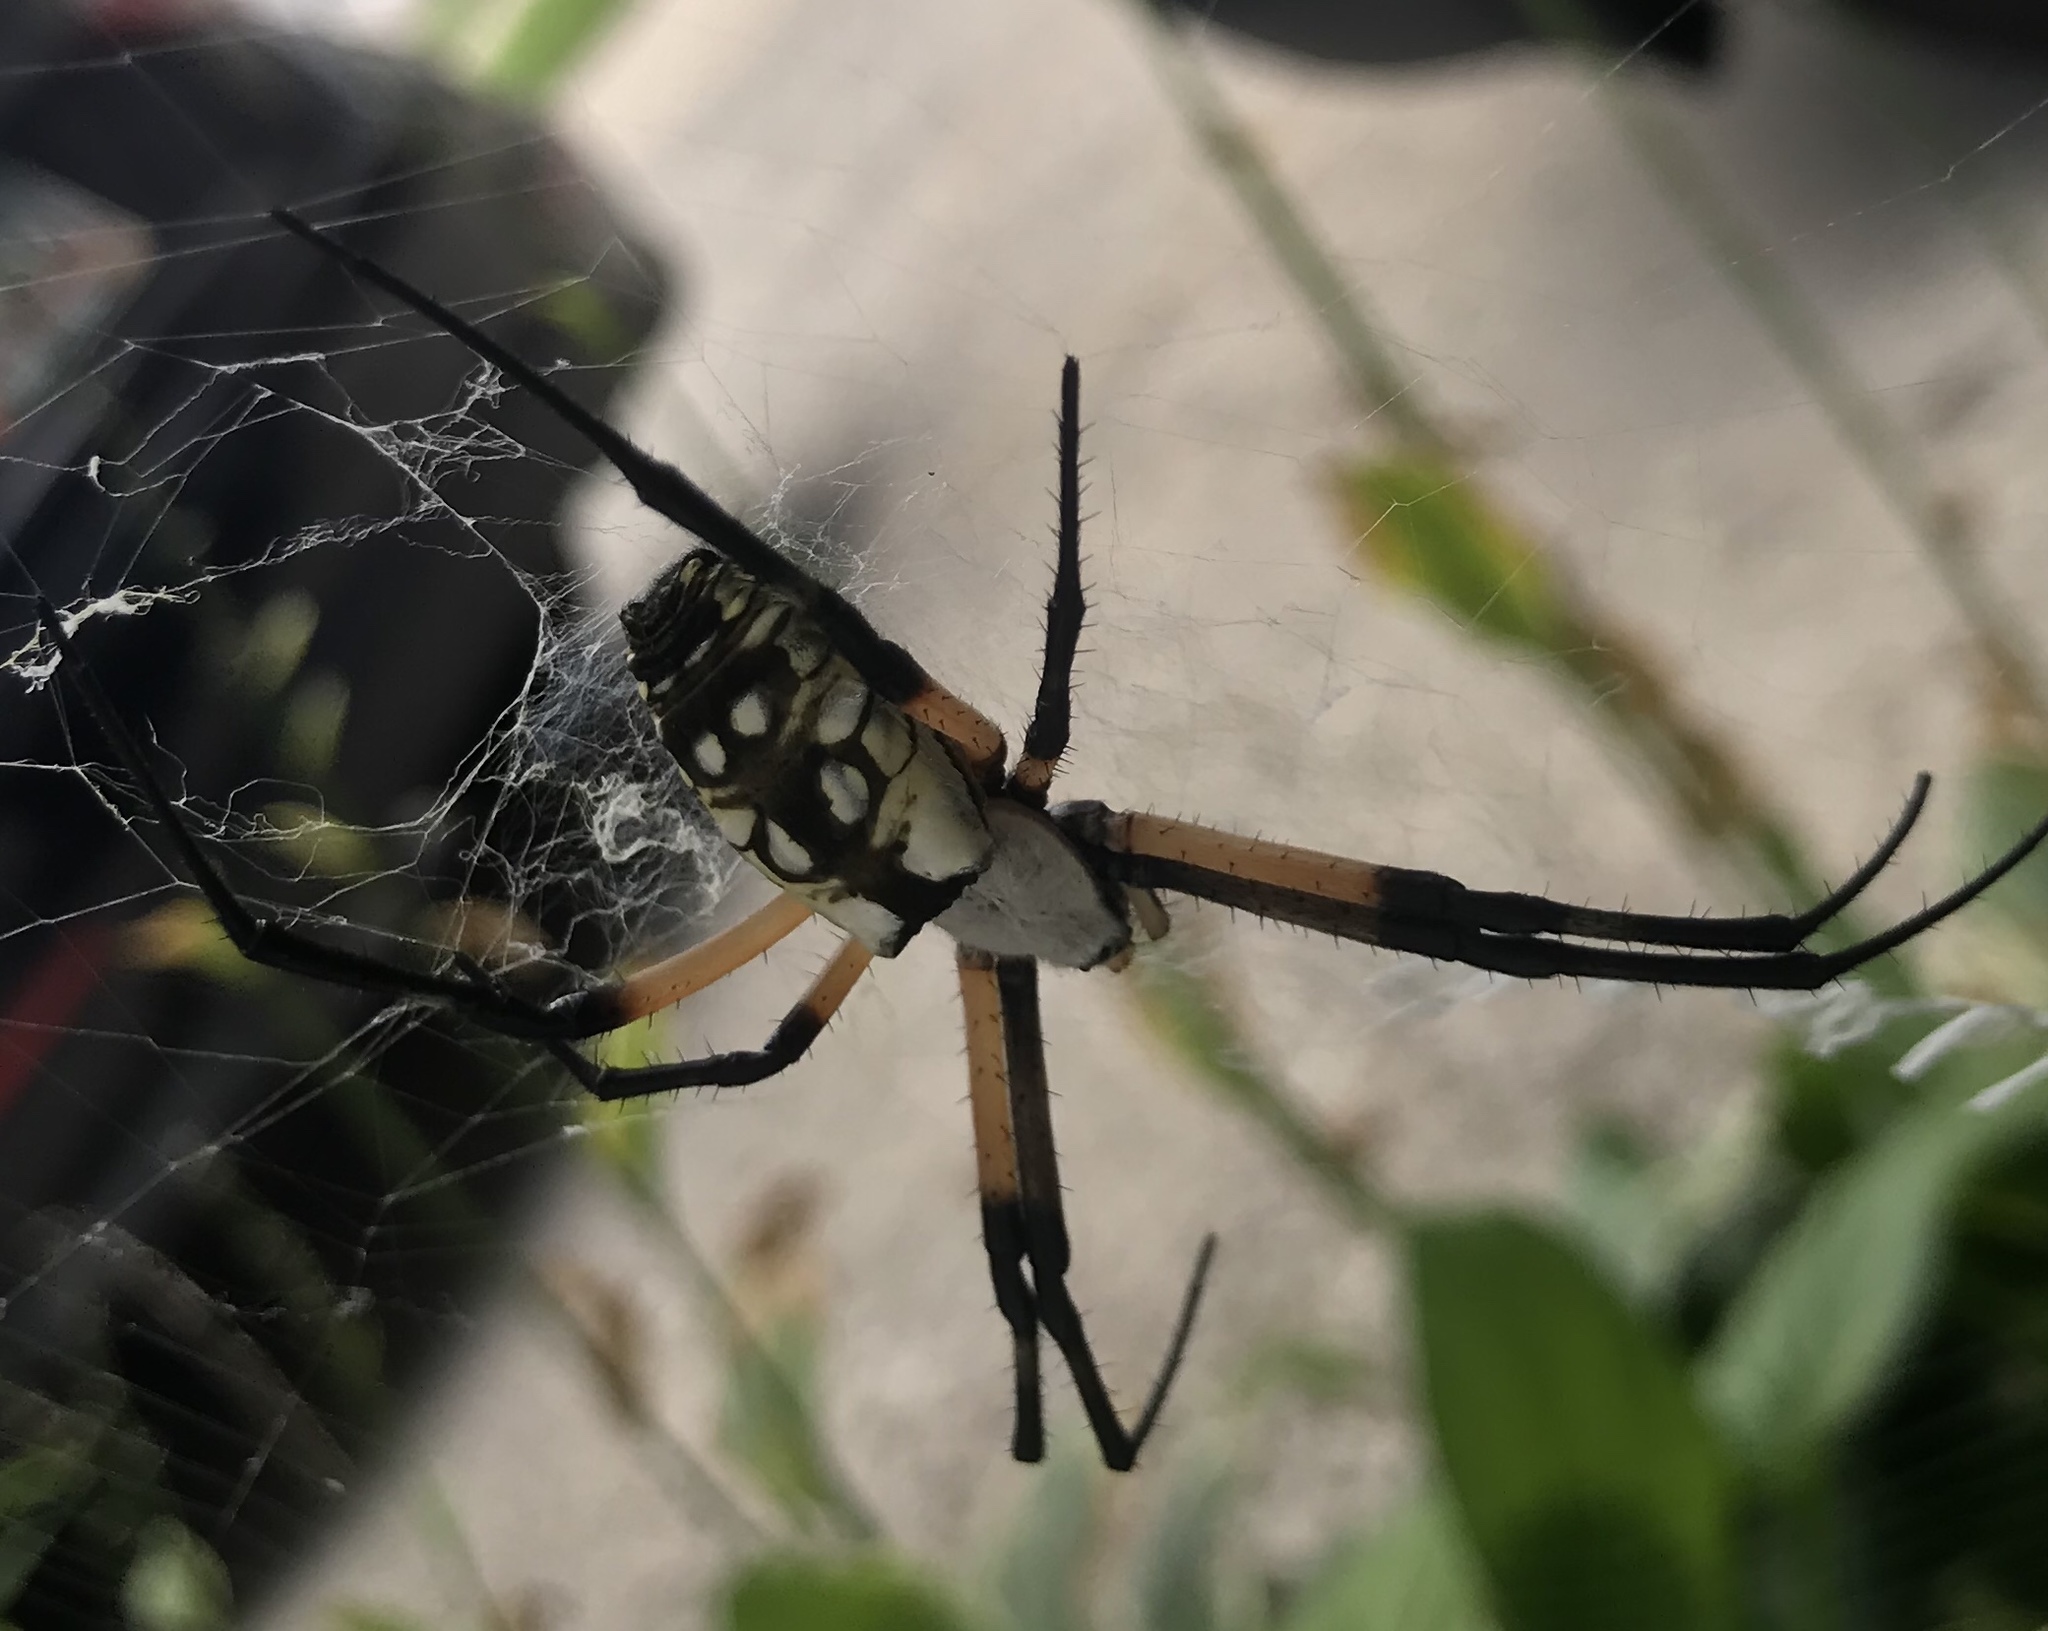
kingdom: Animalia
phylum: Arthropoda
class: Arachnida
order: Araneae
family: Araneidae
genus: Argiope
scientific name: Argiope aurantia
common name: Orb weavers
